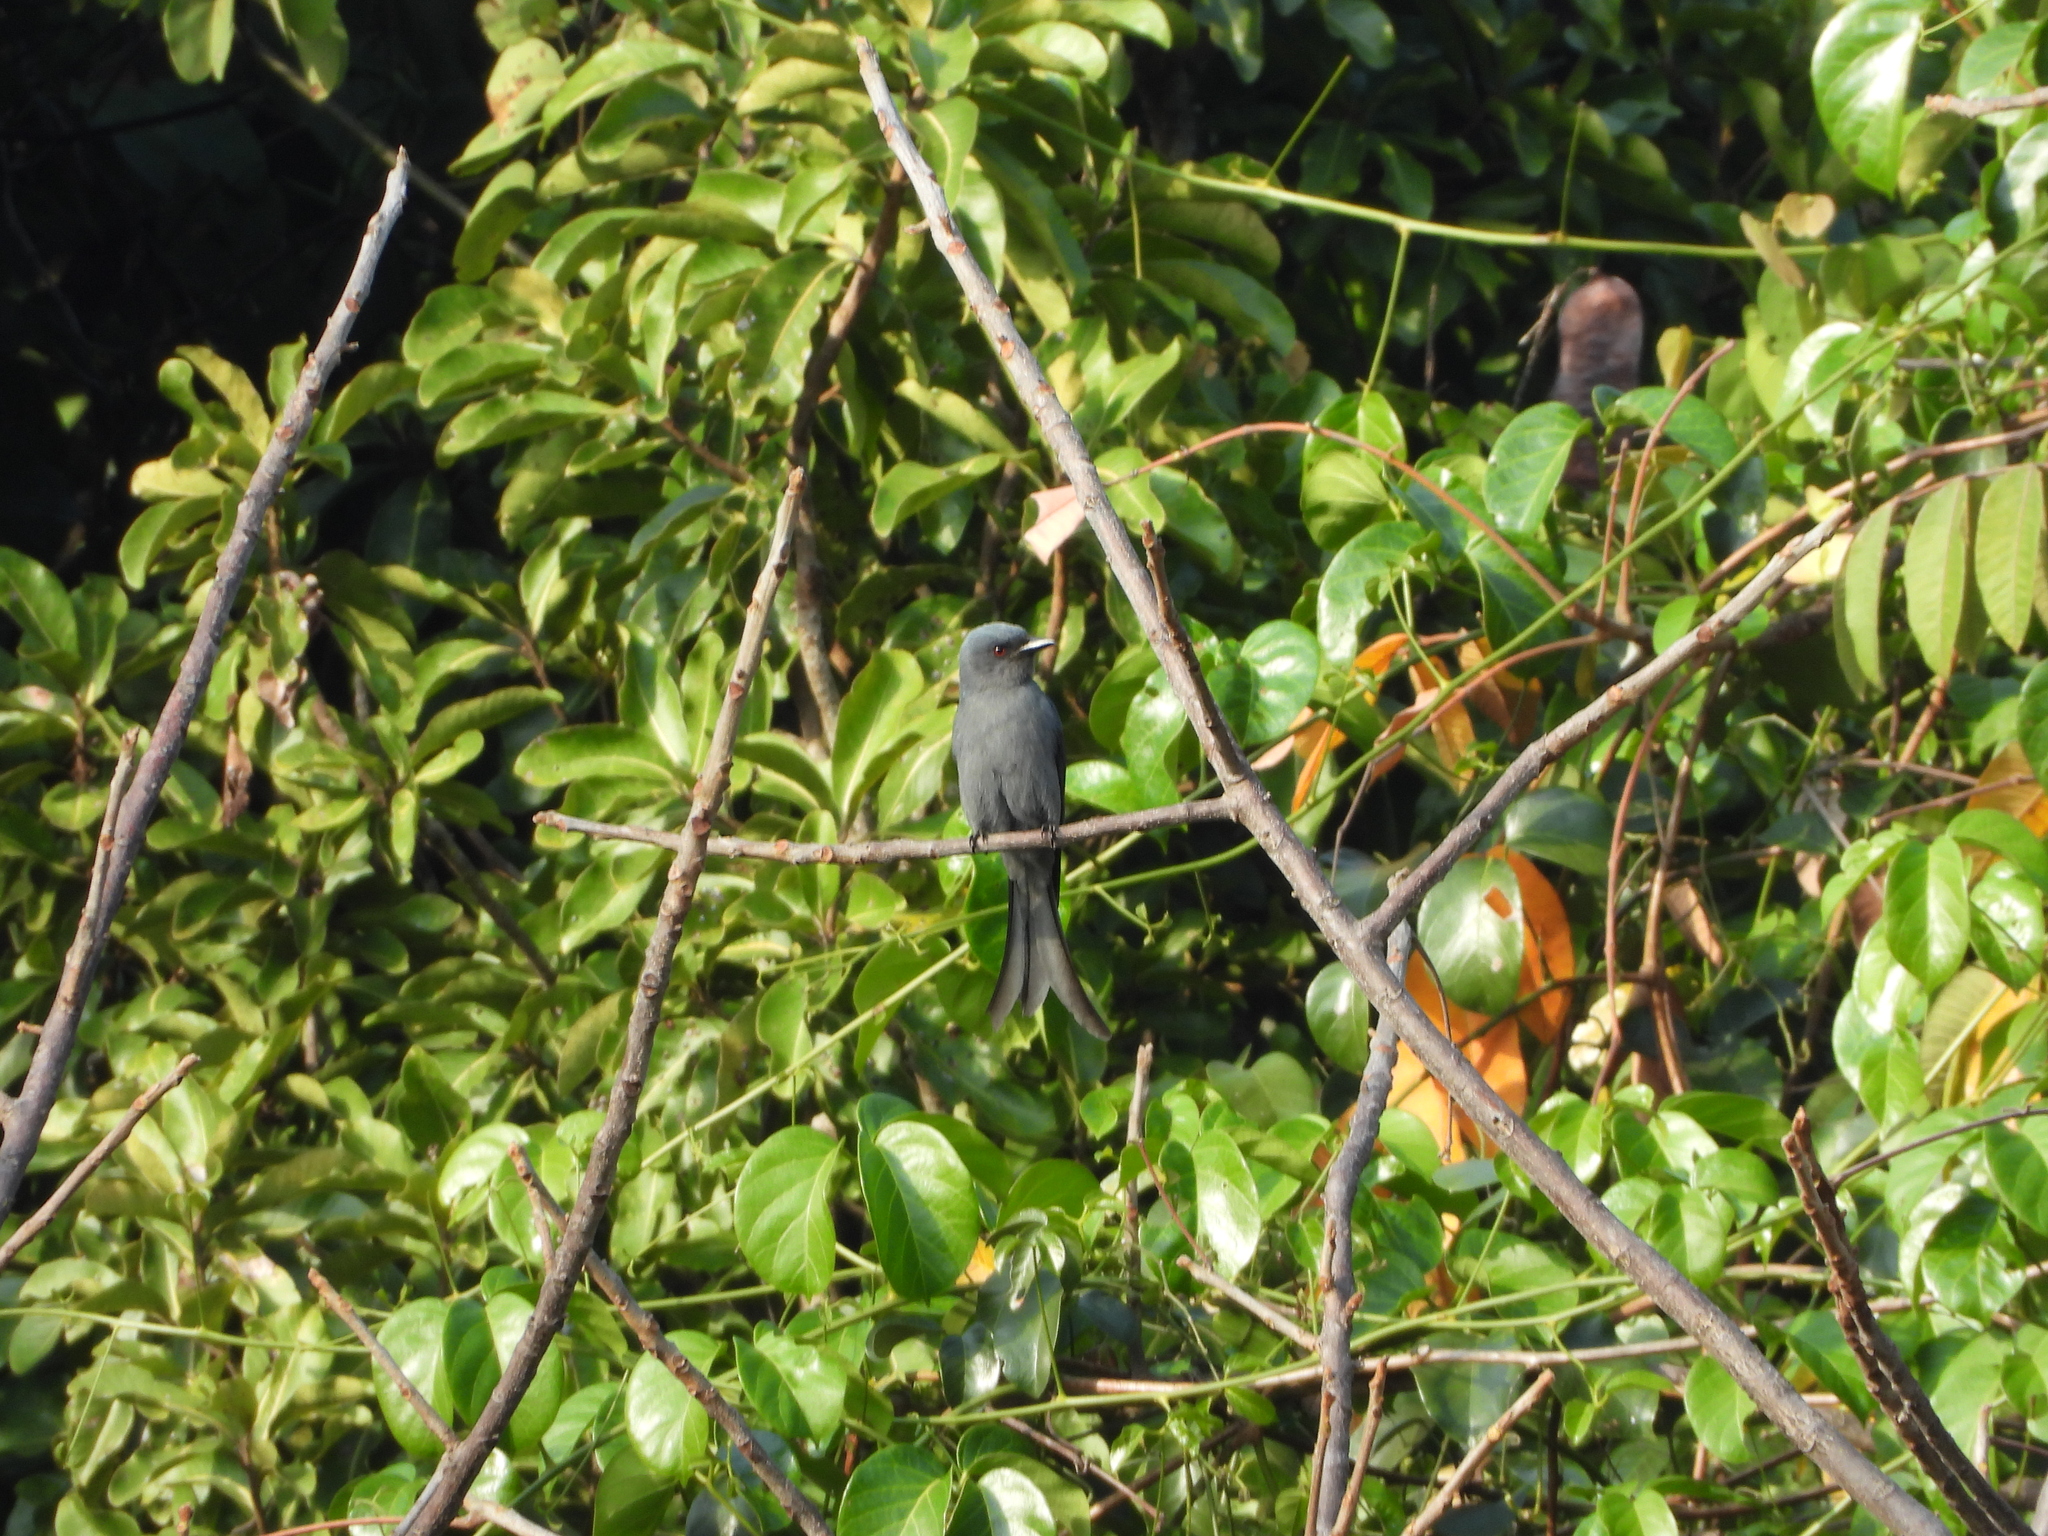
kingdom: Animalia
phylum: Chordata
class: Aves
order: Passeriformes
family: Dicruridae
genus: Dicrurus
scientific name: Dicrurus leucophaeus
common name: Ashy drongo
